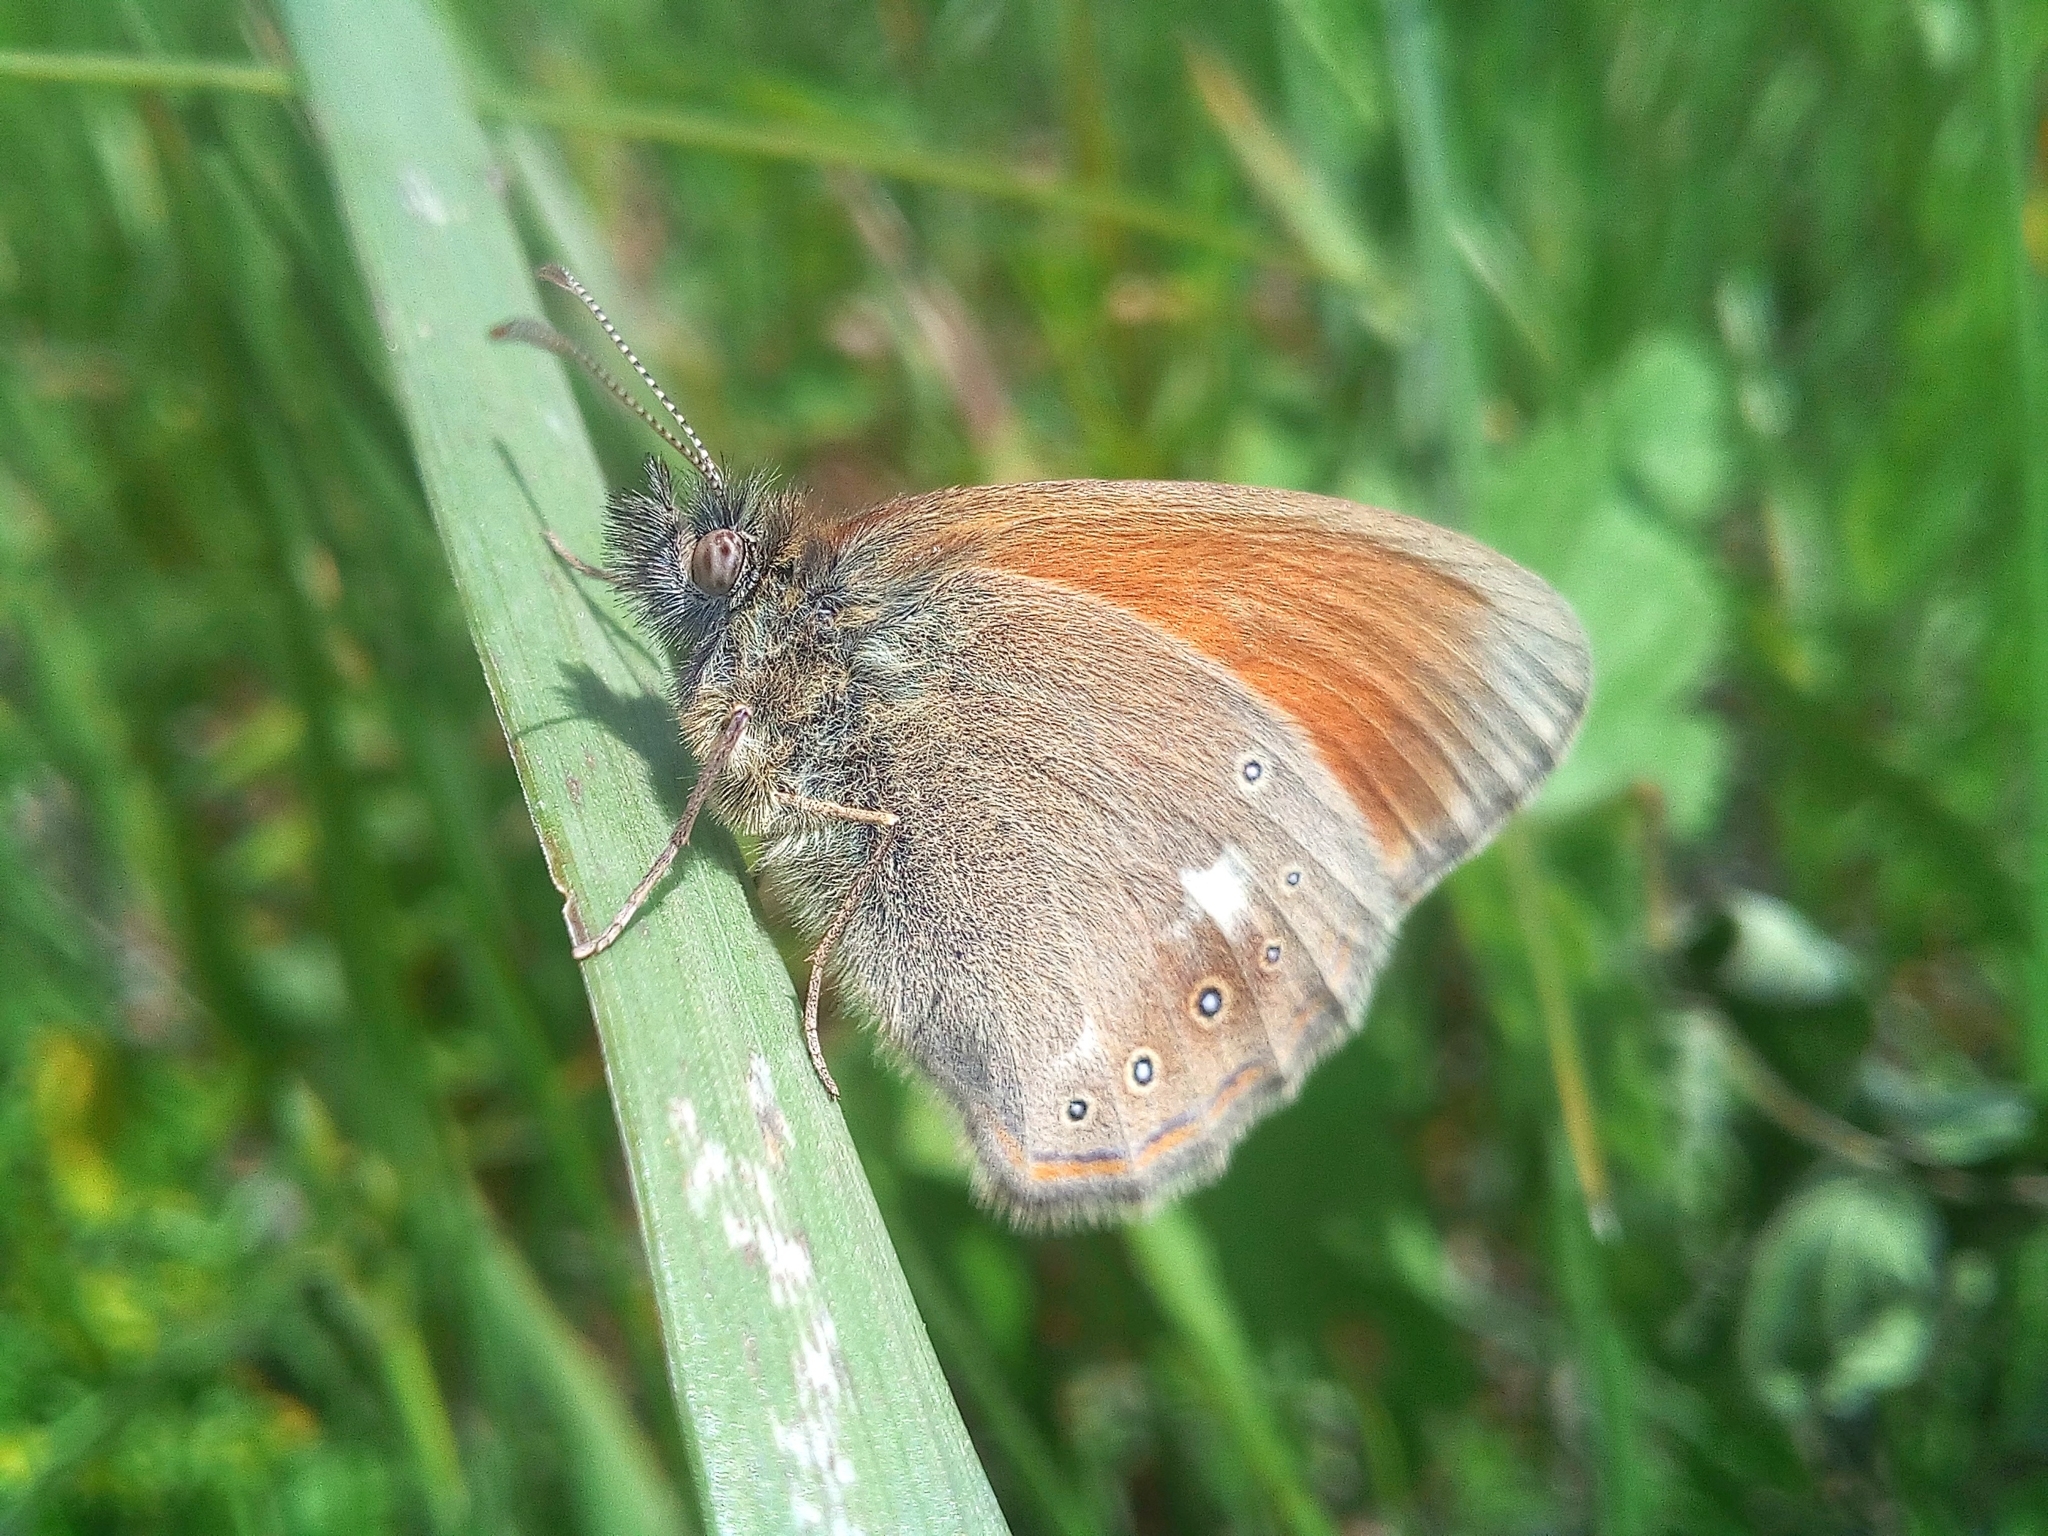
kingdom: Animalia
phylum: Arthropoda
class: Insecta
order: Lepidoptera
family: Nymphalidae
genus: Coenonympha
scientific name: Coenonympha iphis
